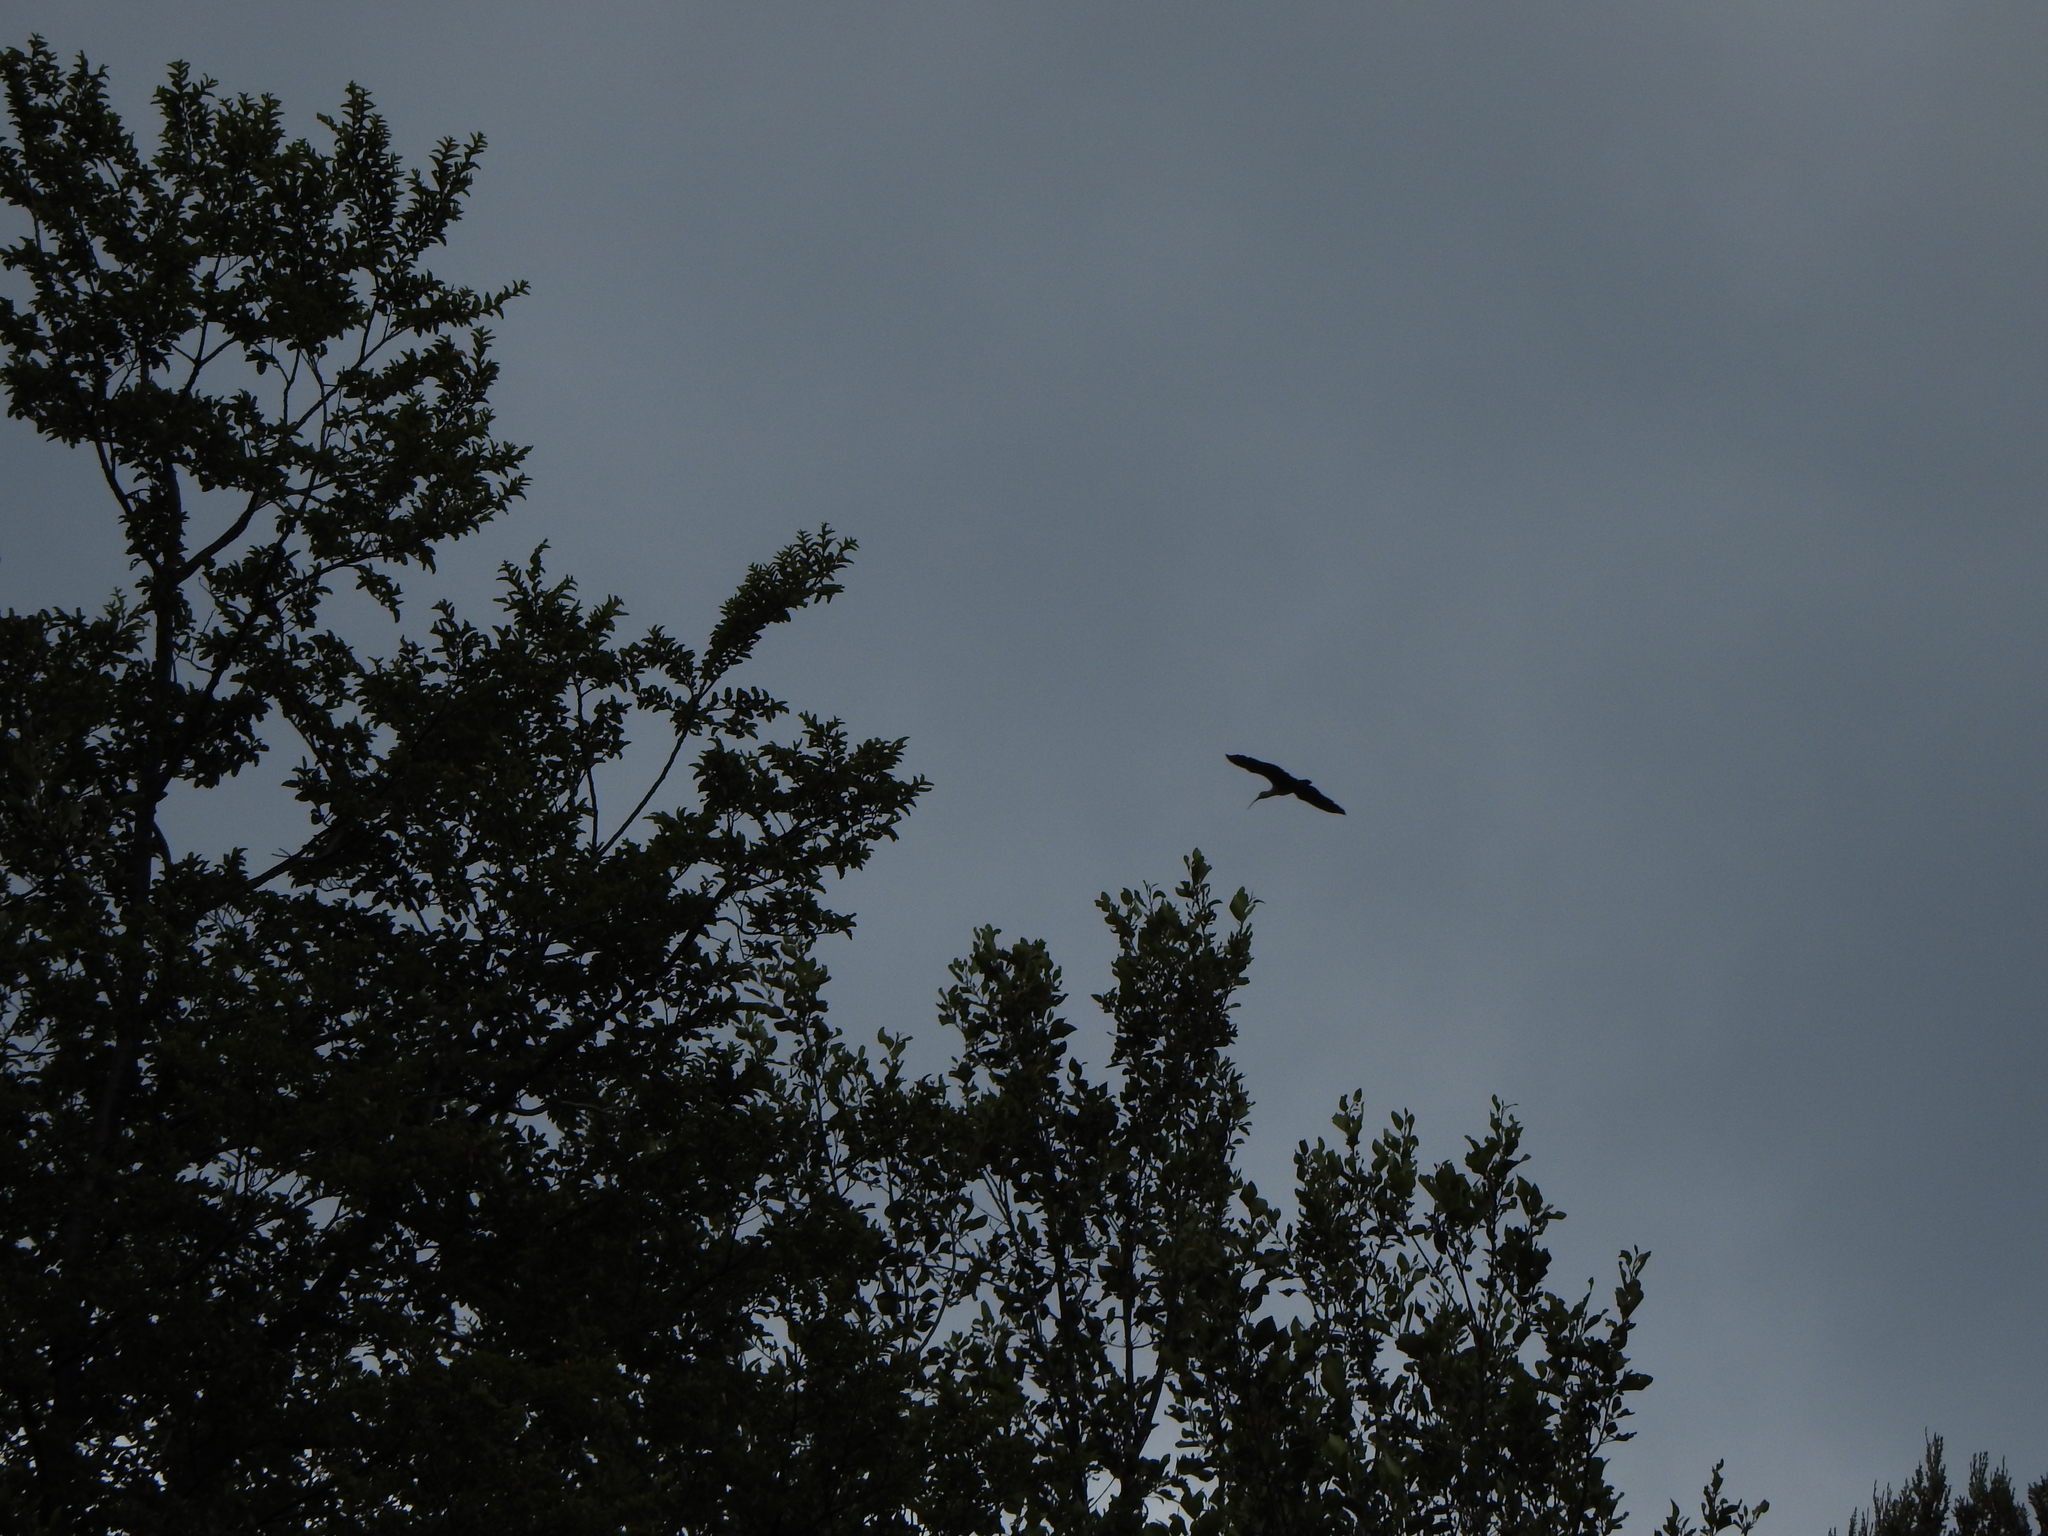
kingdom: Animalia
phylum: Chordata
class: Aves
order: Pelecaniformes
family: Threskiornithidae
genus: Theristicus
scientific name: Theristicus melanopis
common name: Black-faced ibis
